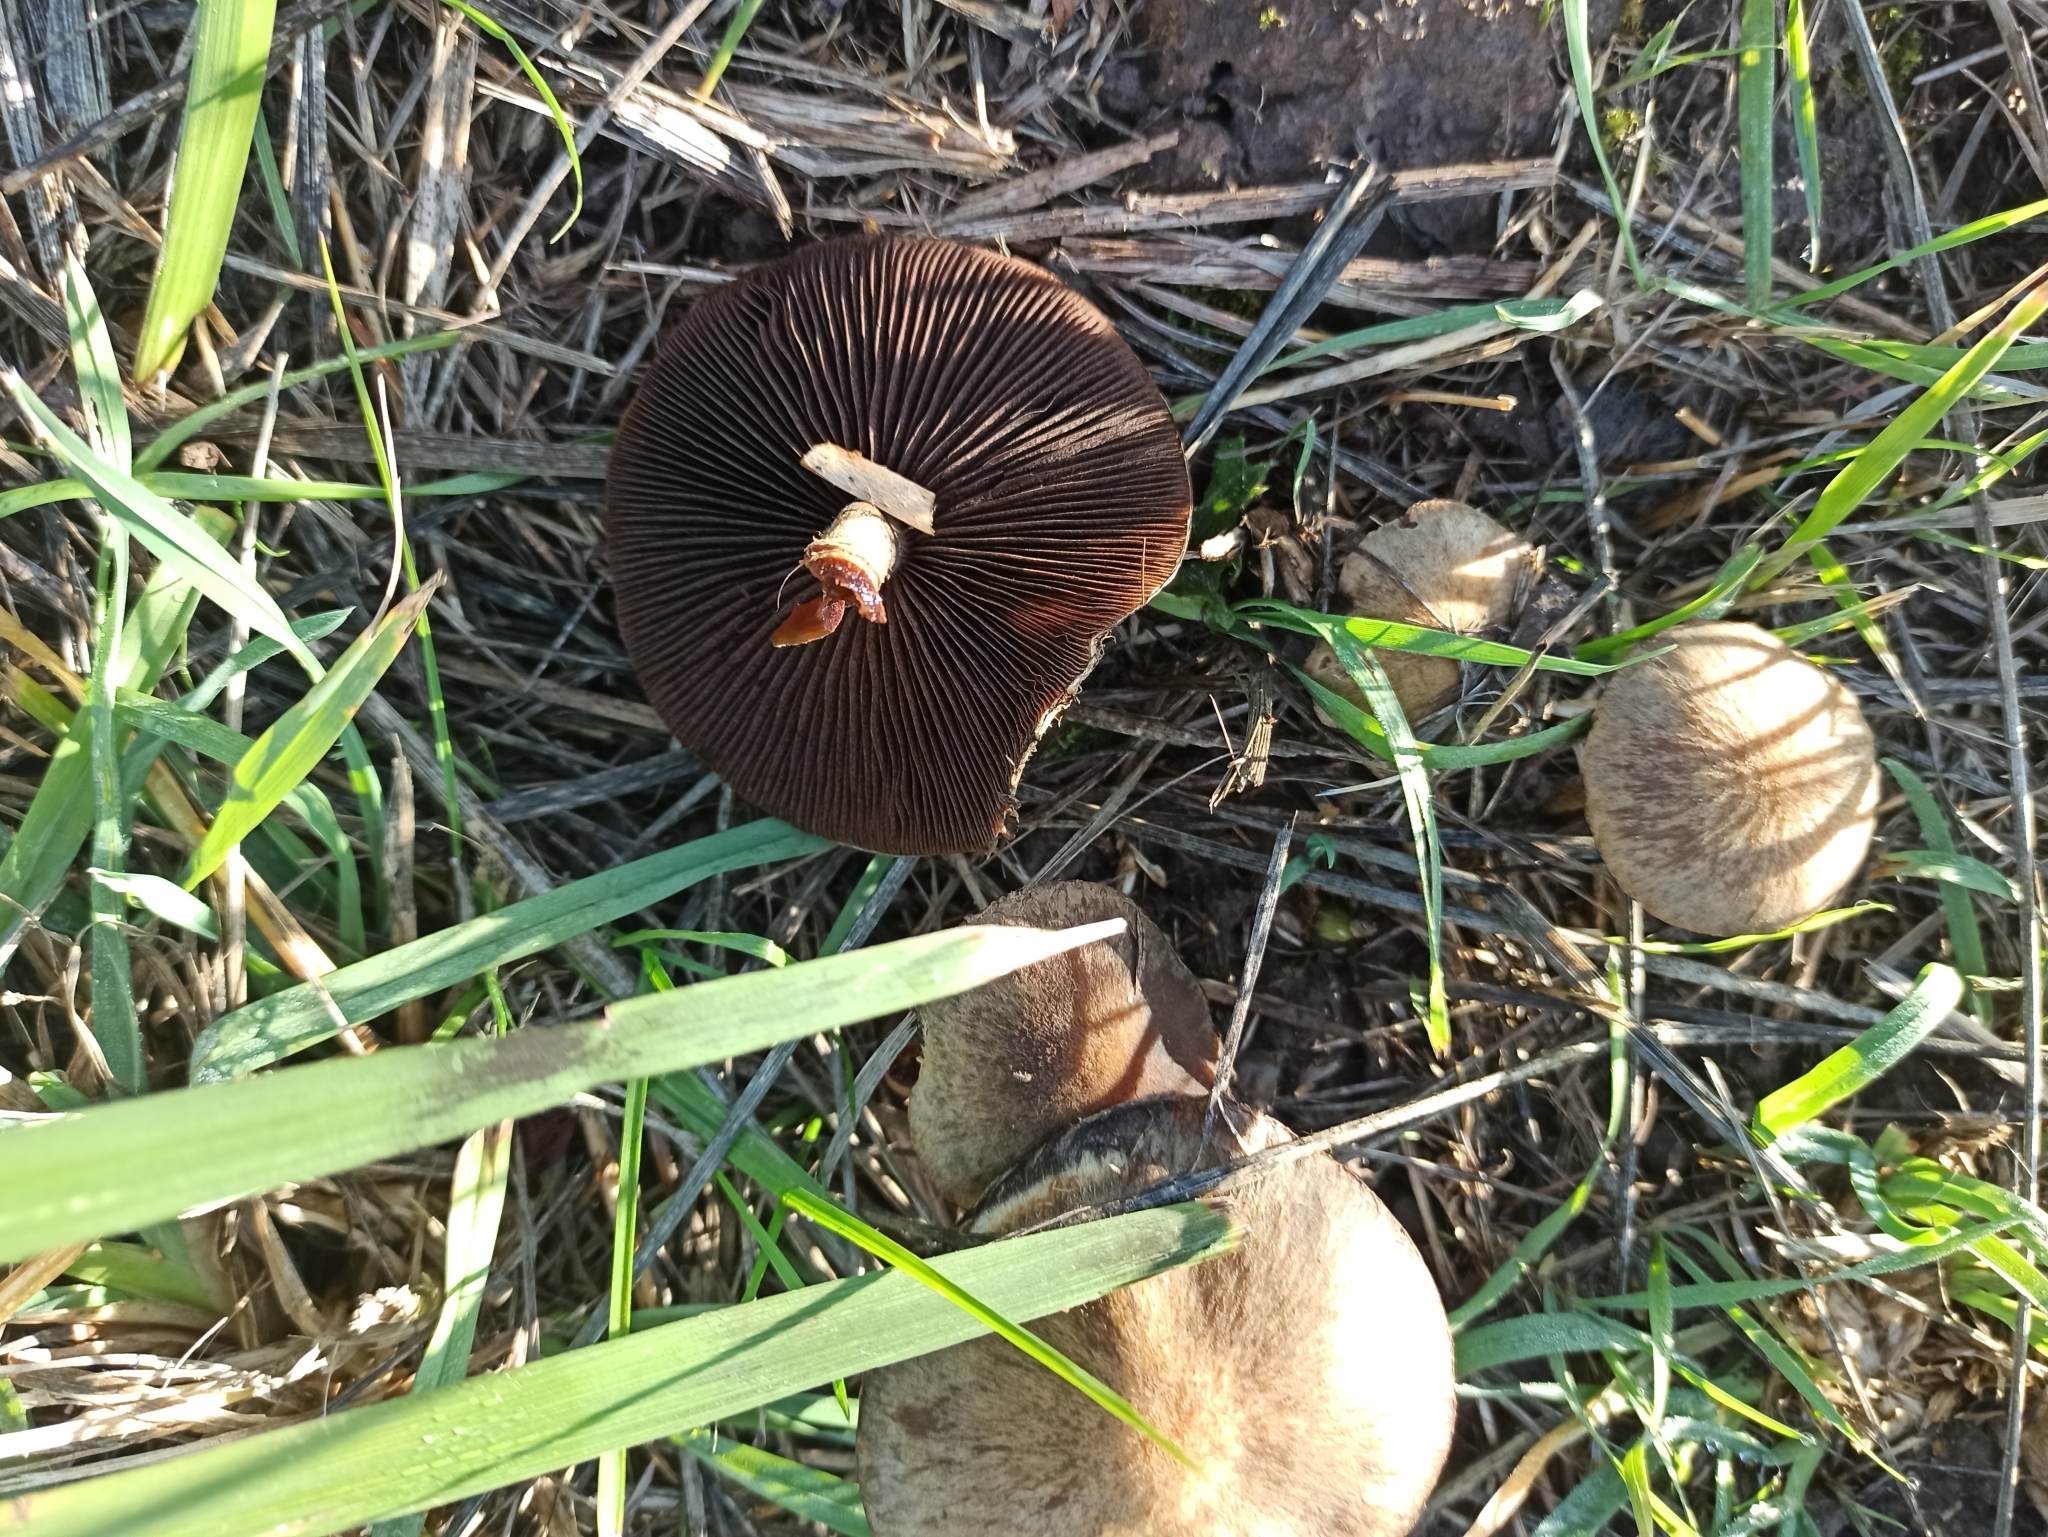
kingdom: Fungi
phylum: Basidiomycota
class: Agaricomycetes
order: Agaricales
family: Psathyrellaceae
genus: Lacrymaria
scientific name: Lacrymaria lacrymabunda
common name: Weeping widow
